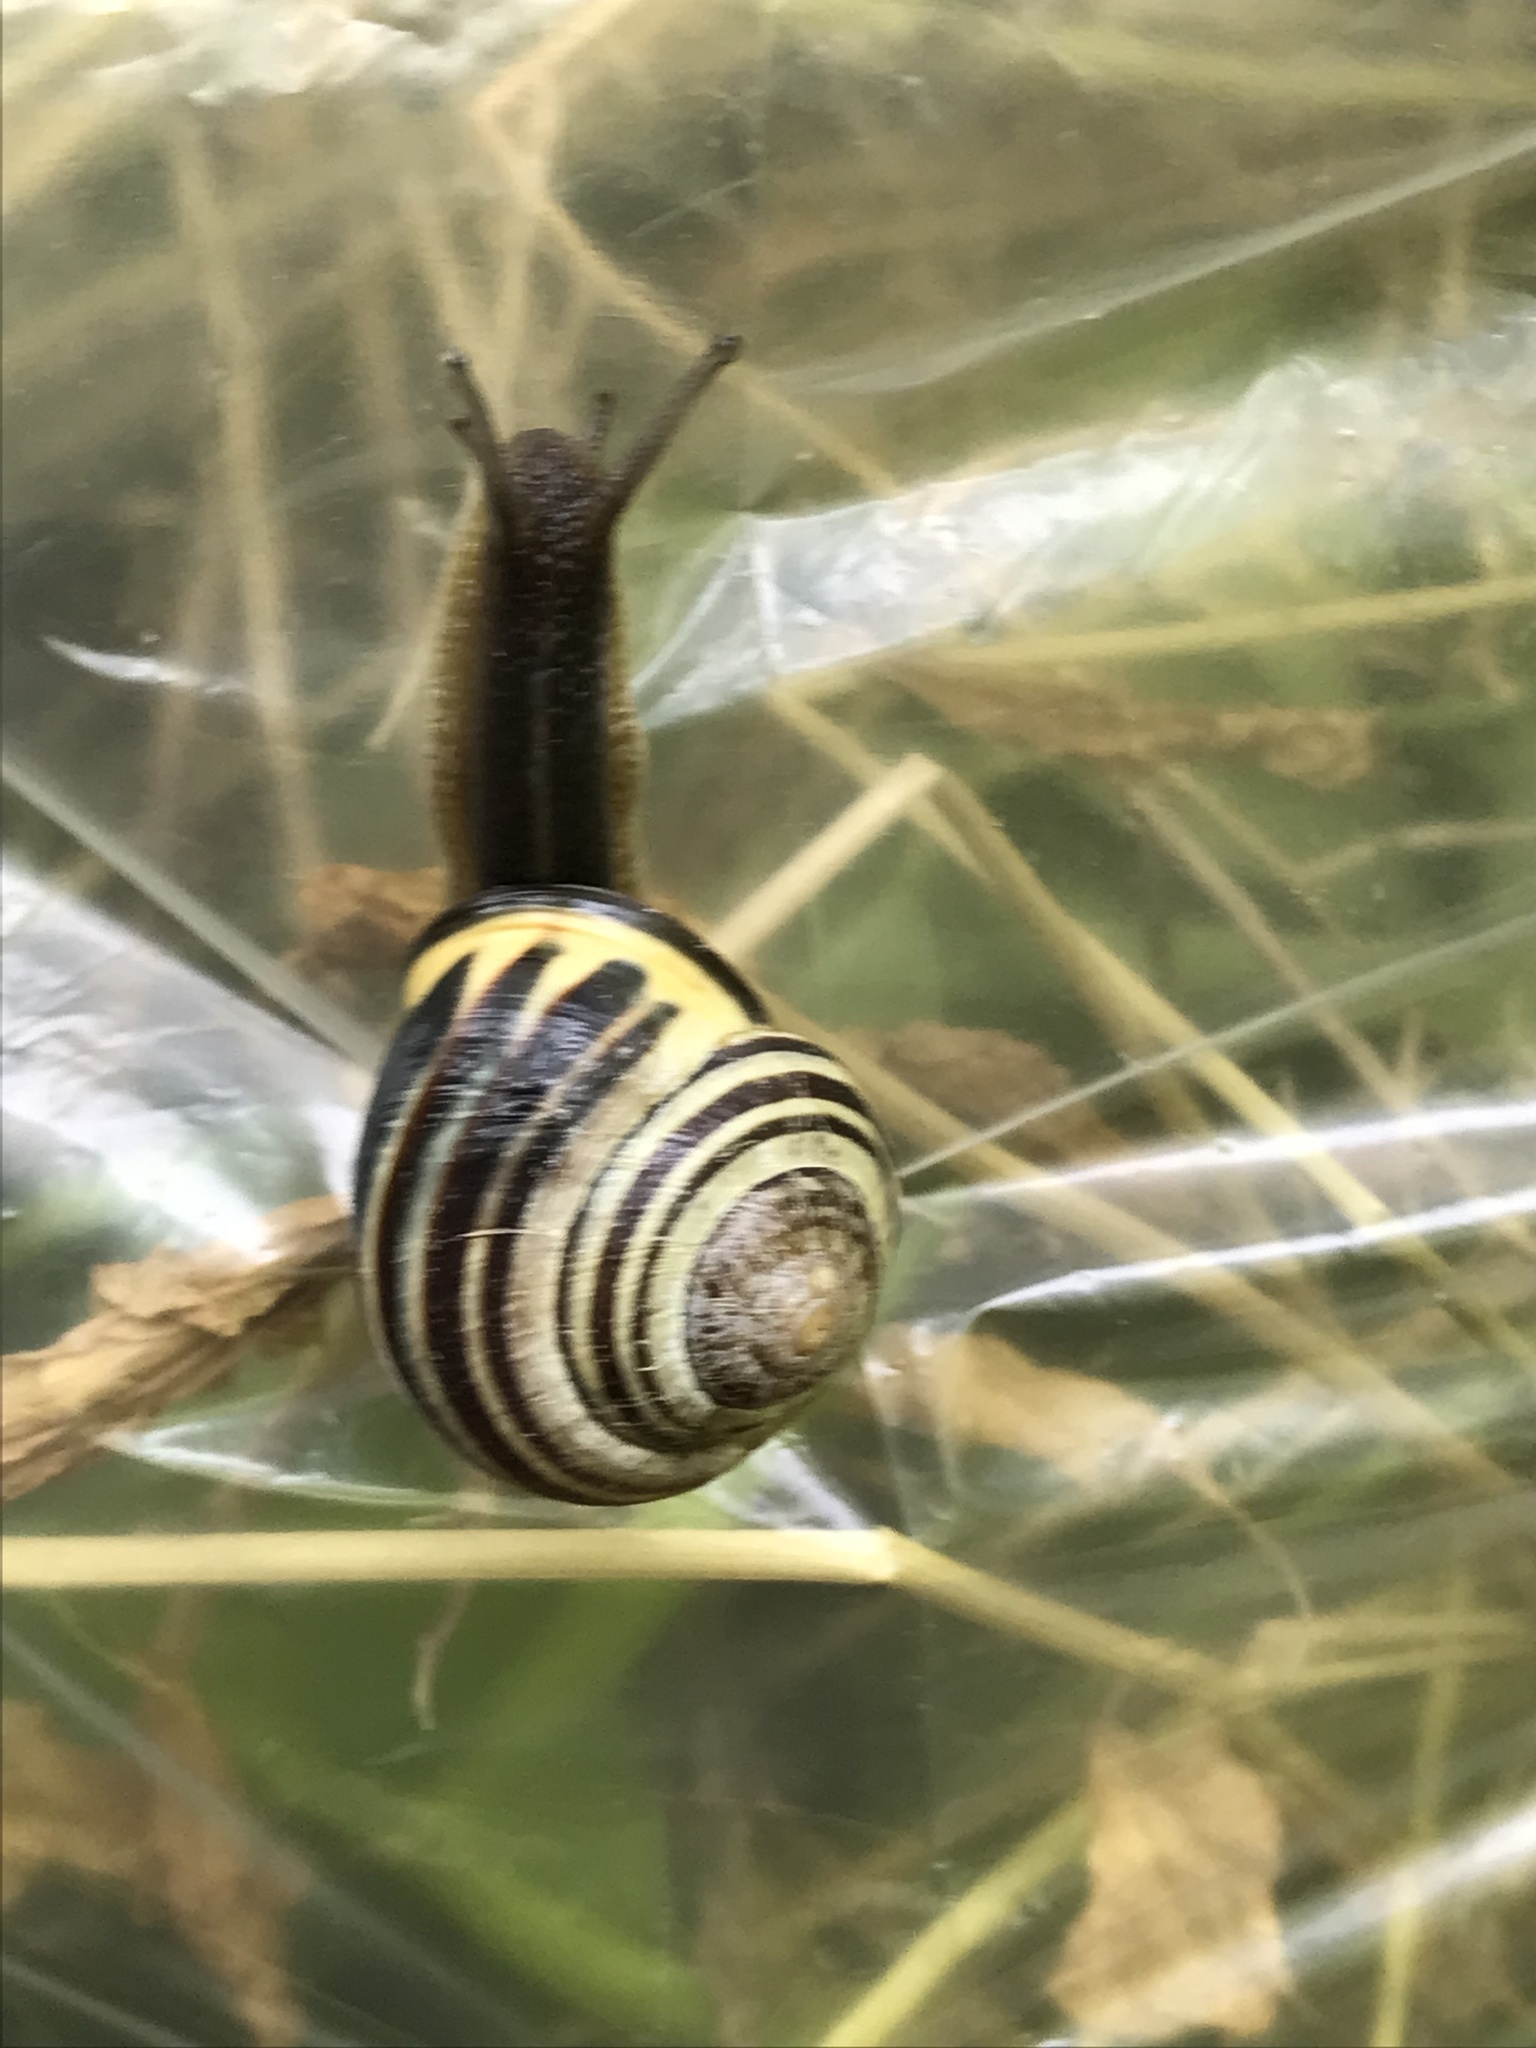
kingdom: Animalia
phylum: Mollusca
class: Gastropoda
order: Stylommatophora
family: Helicidae
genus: Cepaea
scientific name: Cepaea nemoralis
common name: Grovesnail
